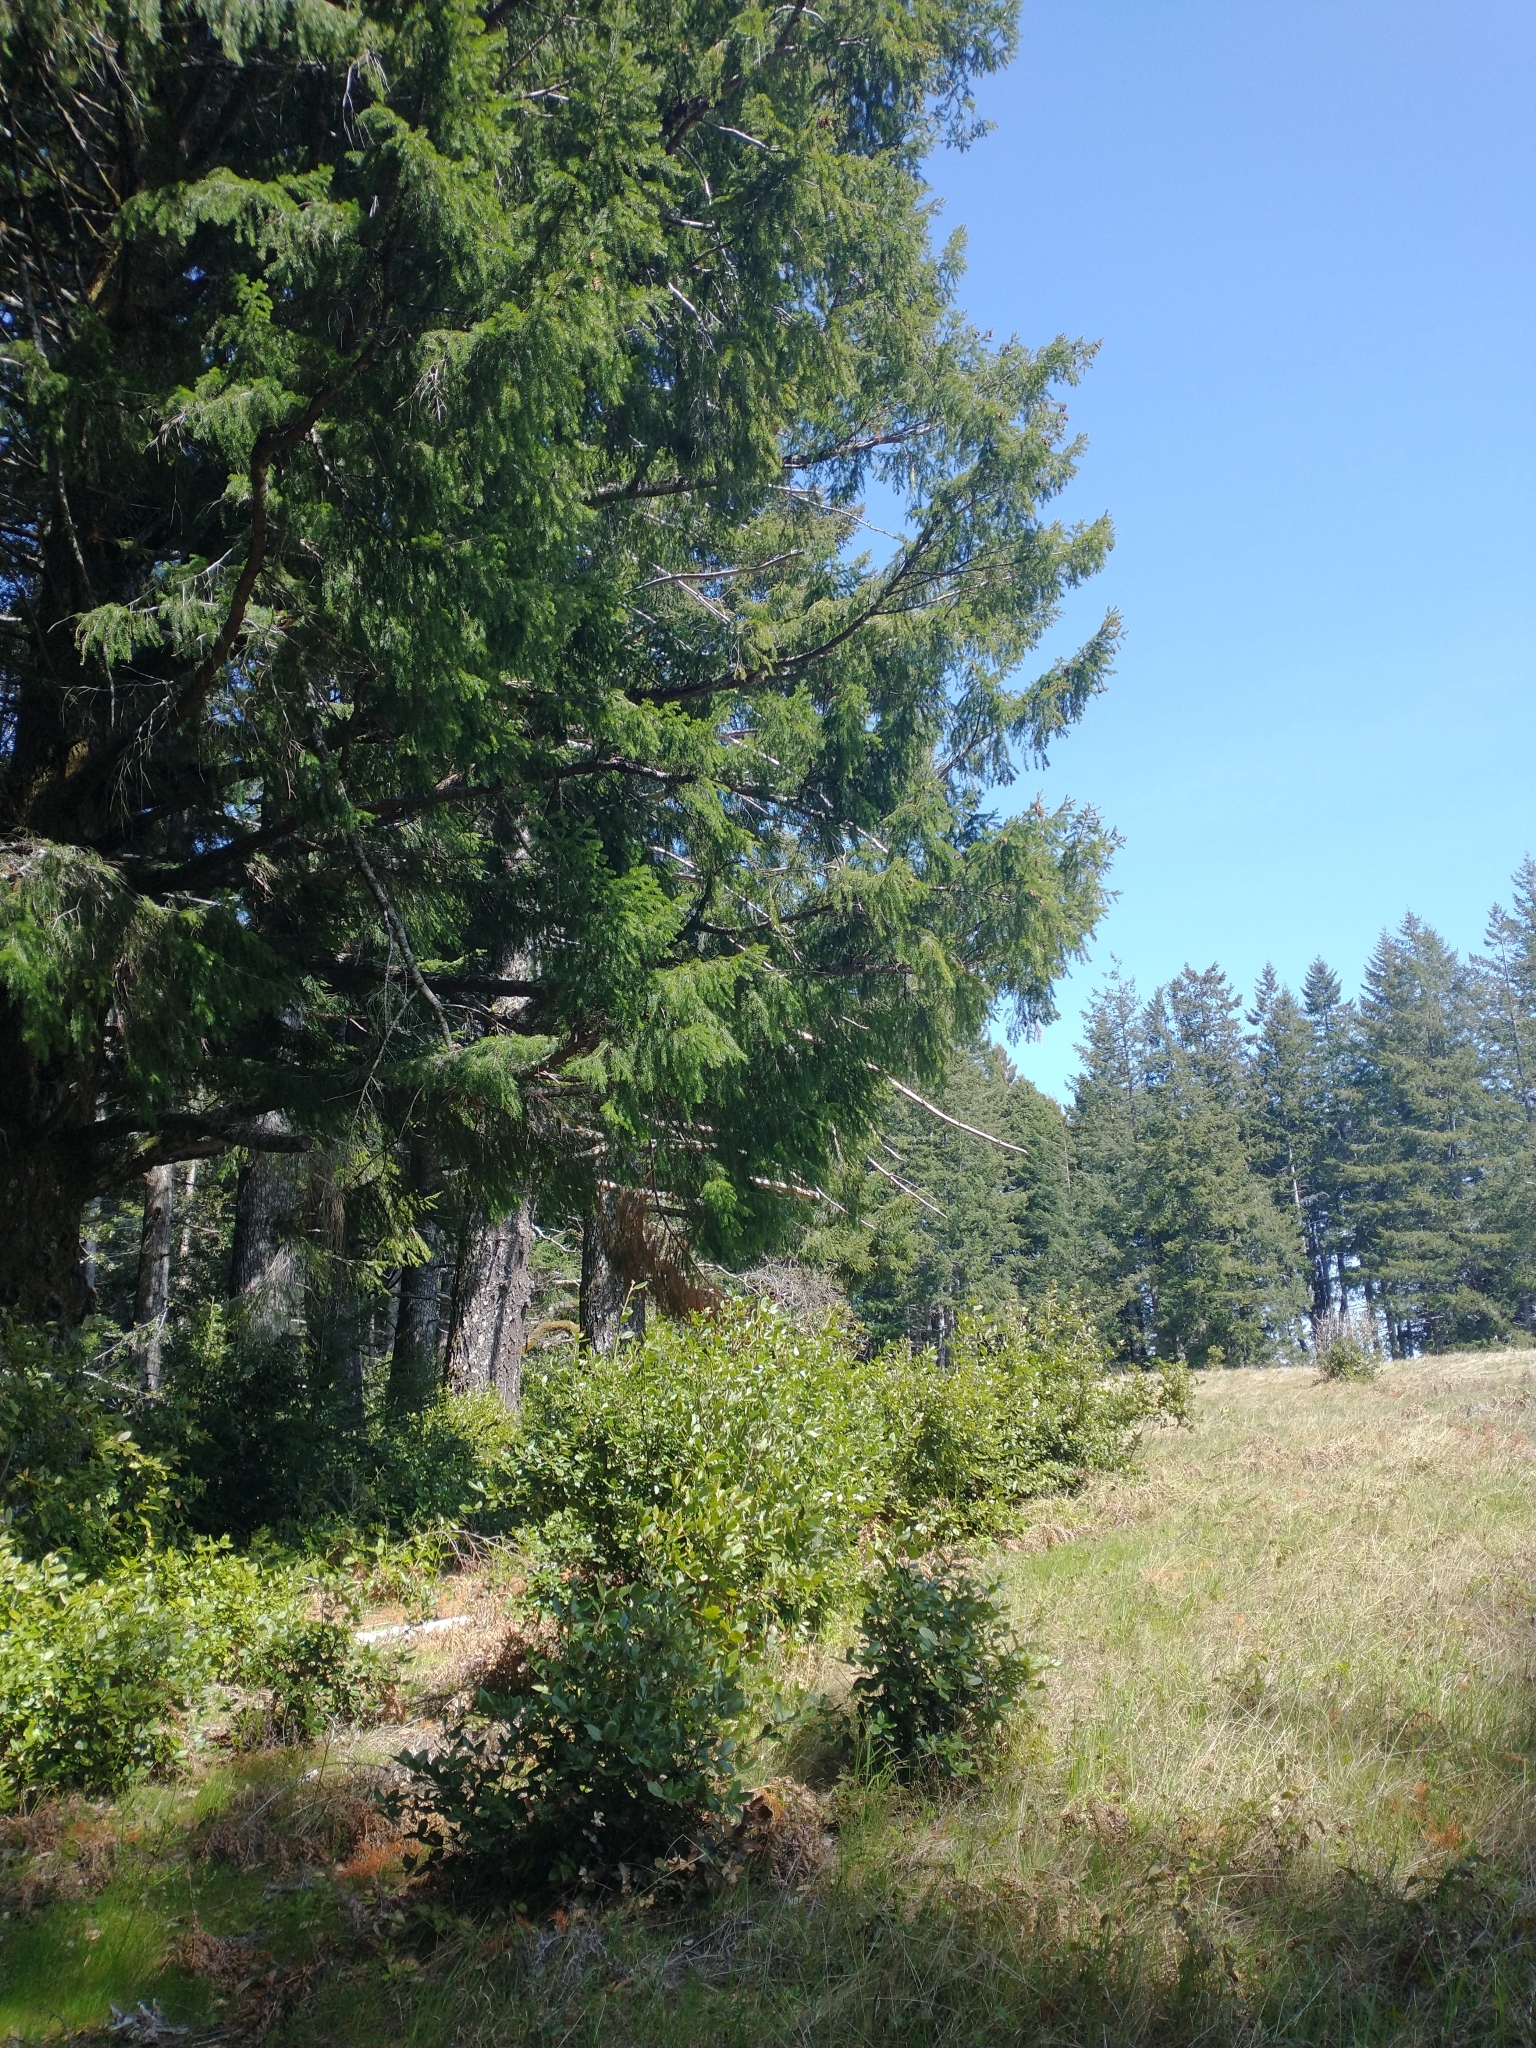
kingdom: Plantae
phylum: Tracheophyta
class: Pinopsida
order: Pinales
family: Pinaceae
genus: Pseudotsuga
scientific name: Pseudotsuga menziesii
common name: Douglas fir
